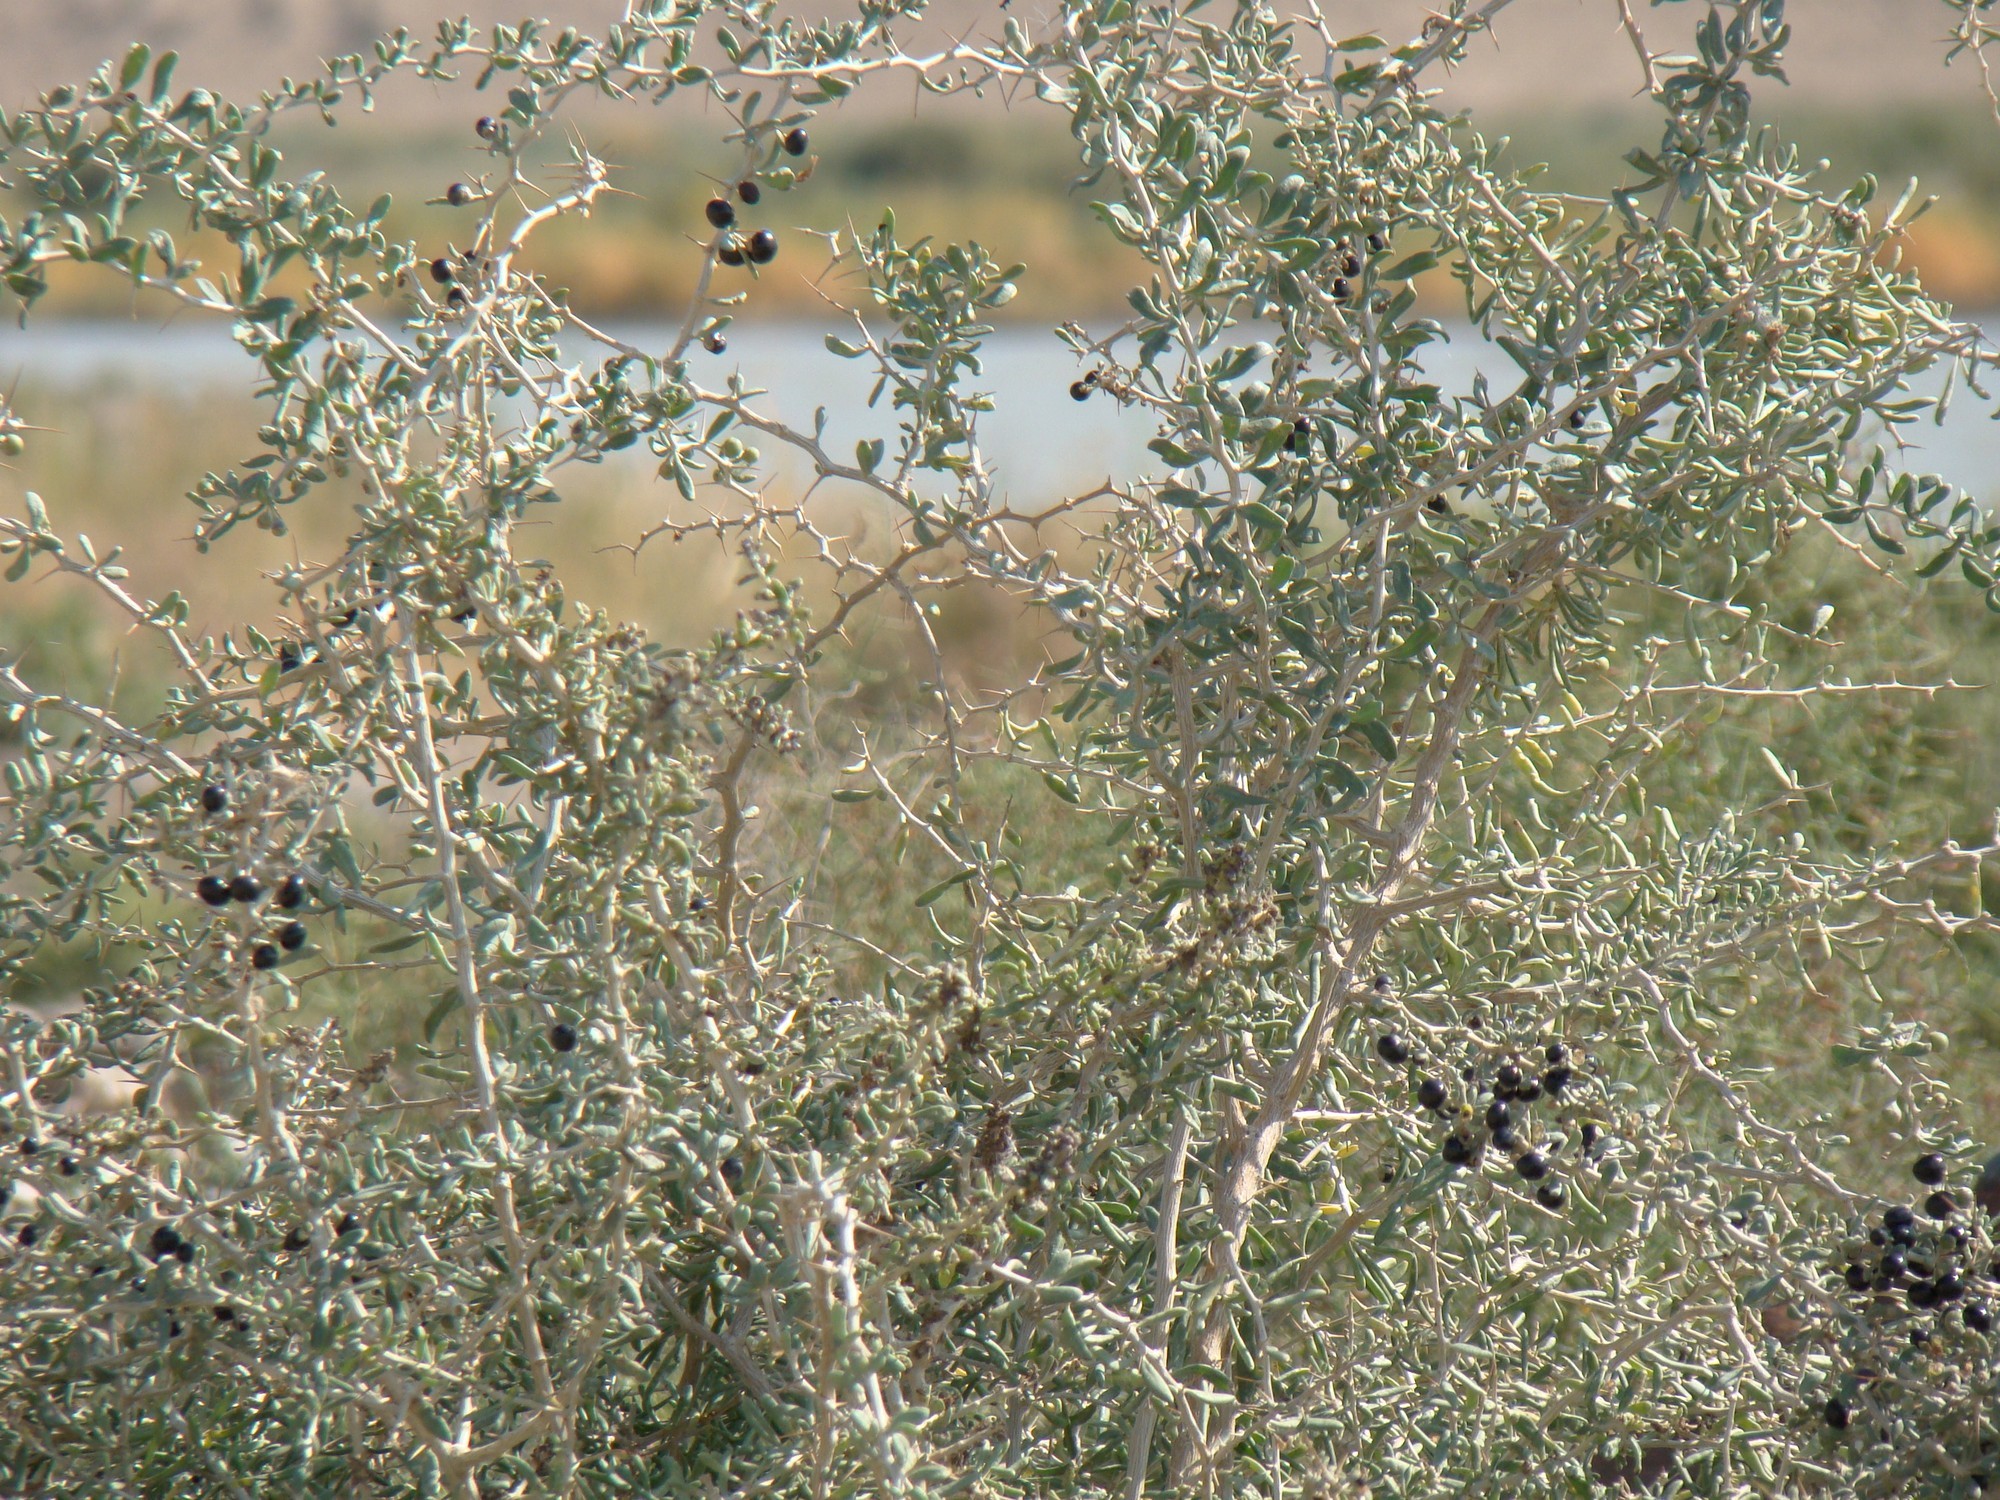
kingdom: Plantae
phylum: Tracheophyta
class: Magnoliopsida
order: Solanales
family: Solanaceae
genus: Lycium
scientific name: Lycium ruthenicum
